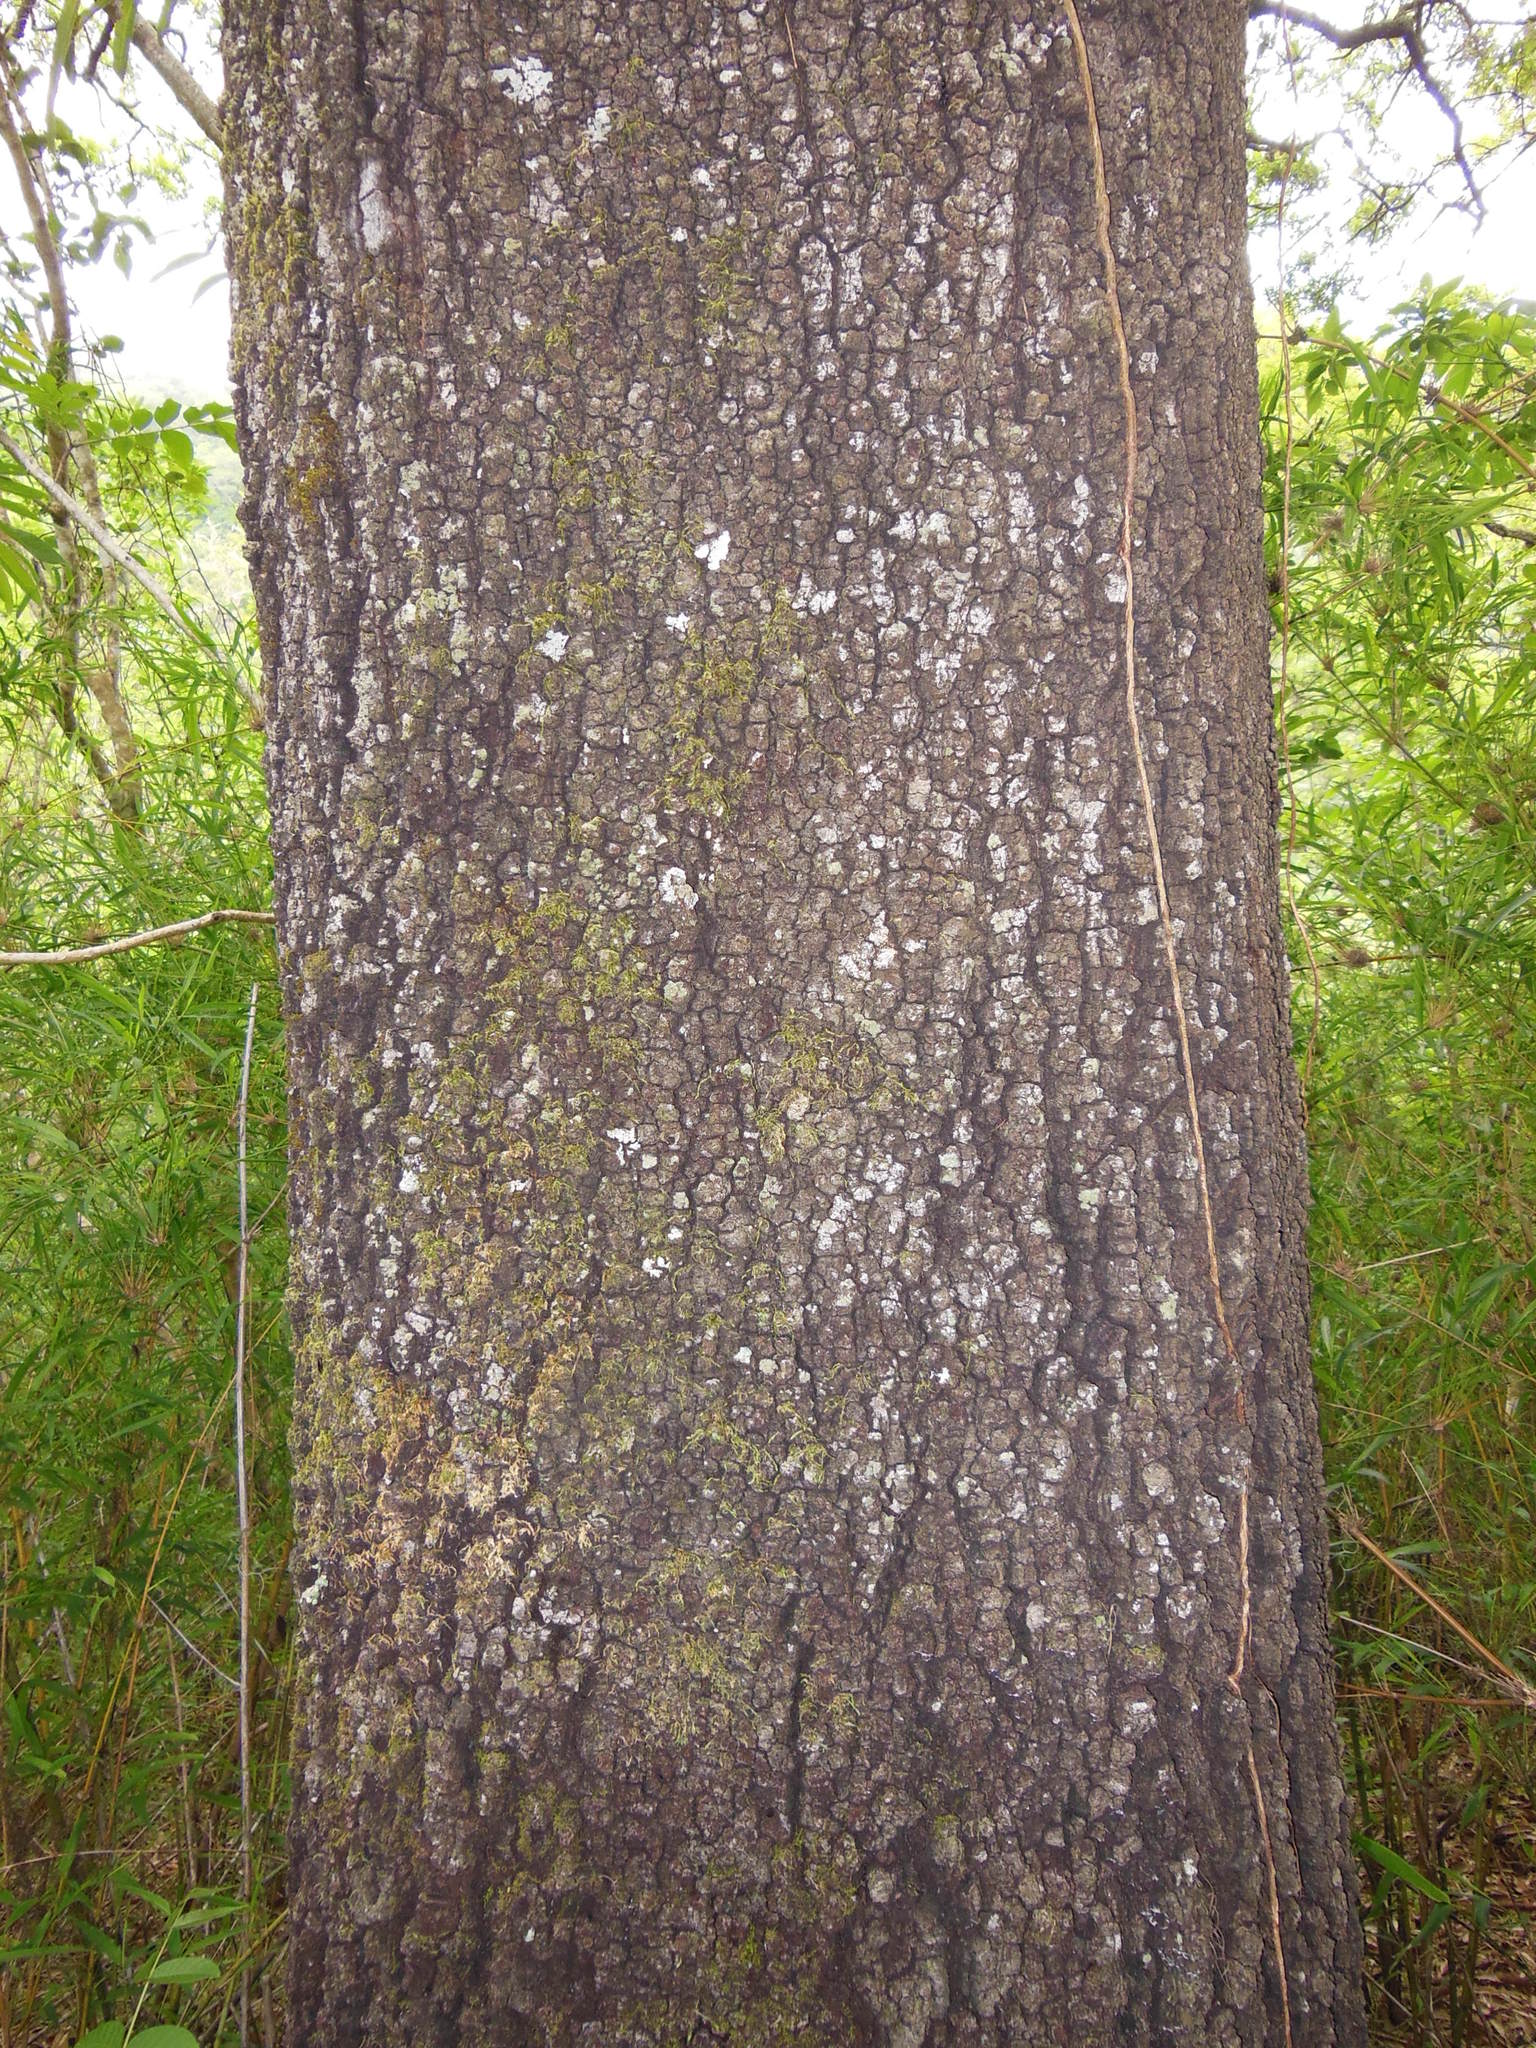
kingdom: Plantae
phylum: Tracheophyta
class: Magnoliopsida
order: Fagales
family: Fagaceae
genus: Quercus
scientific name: Quercus castanea
